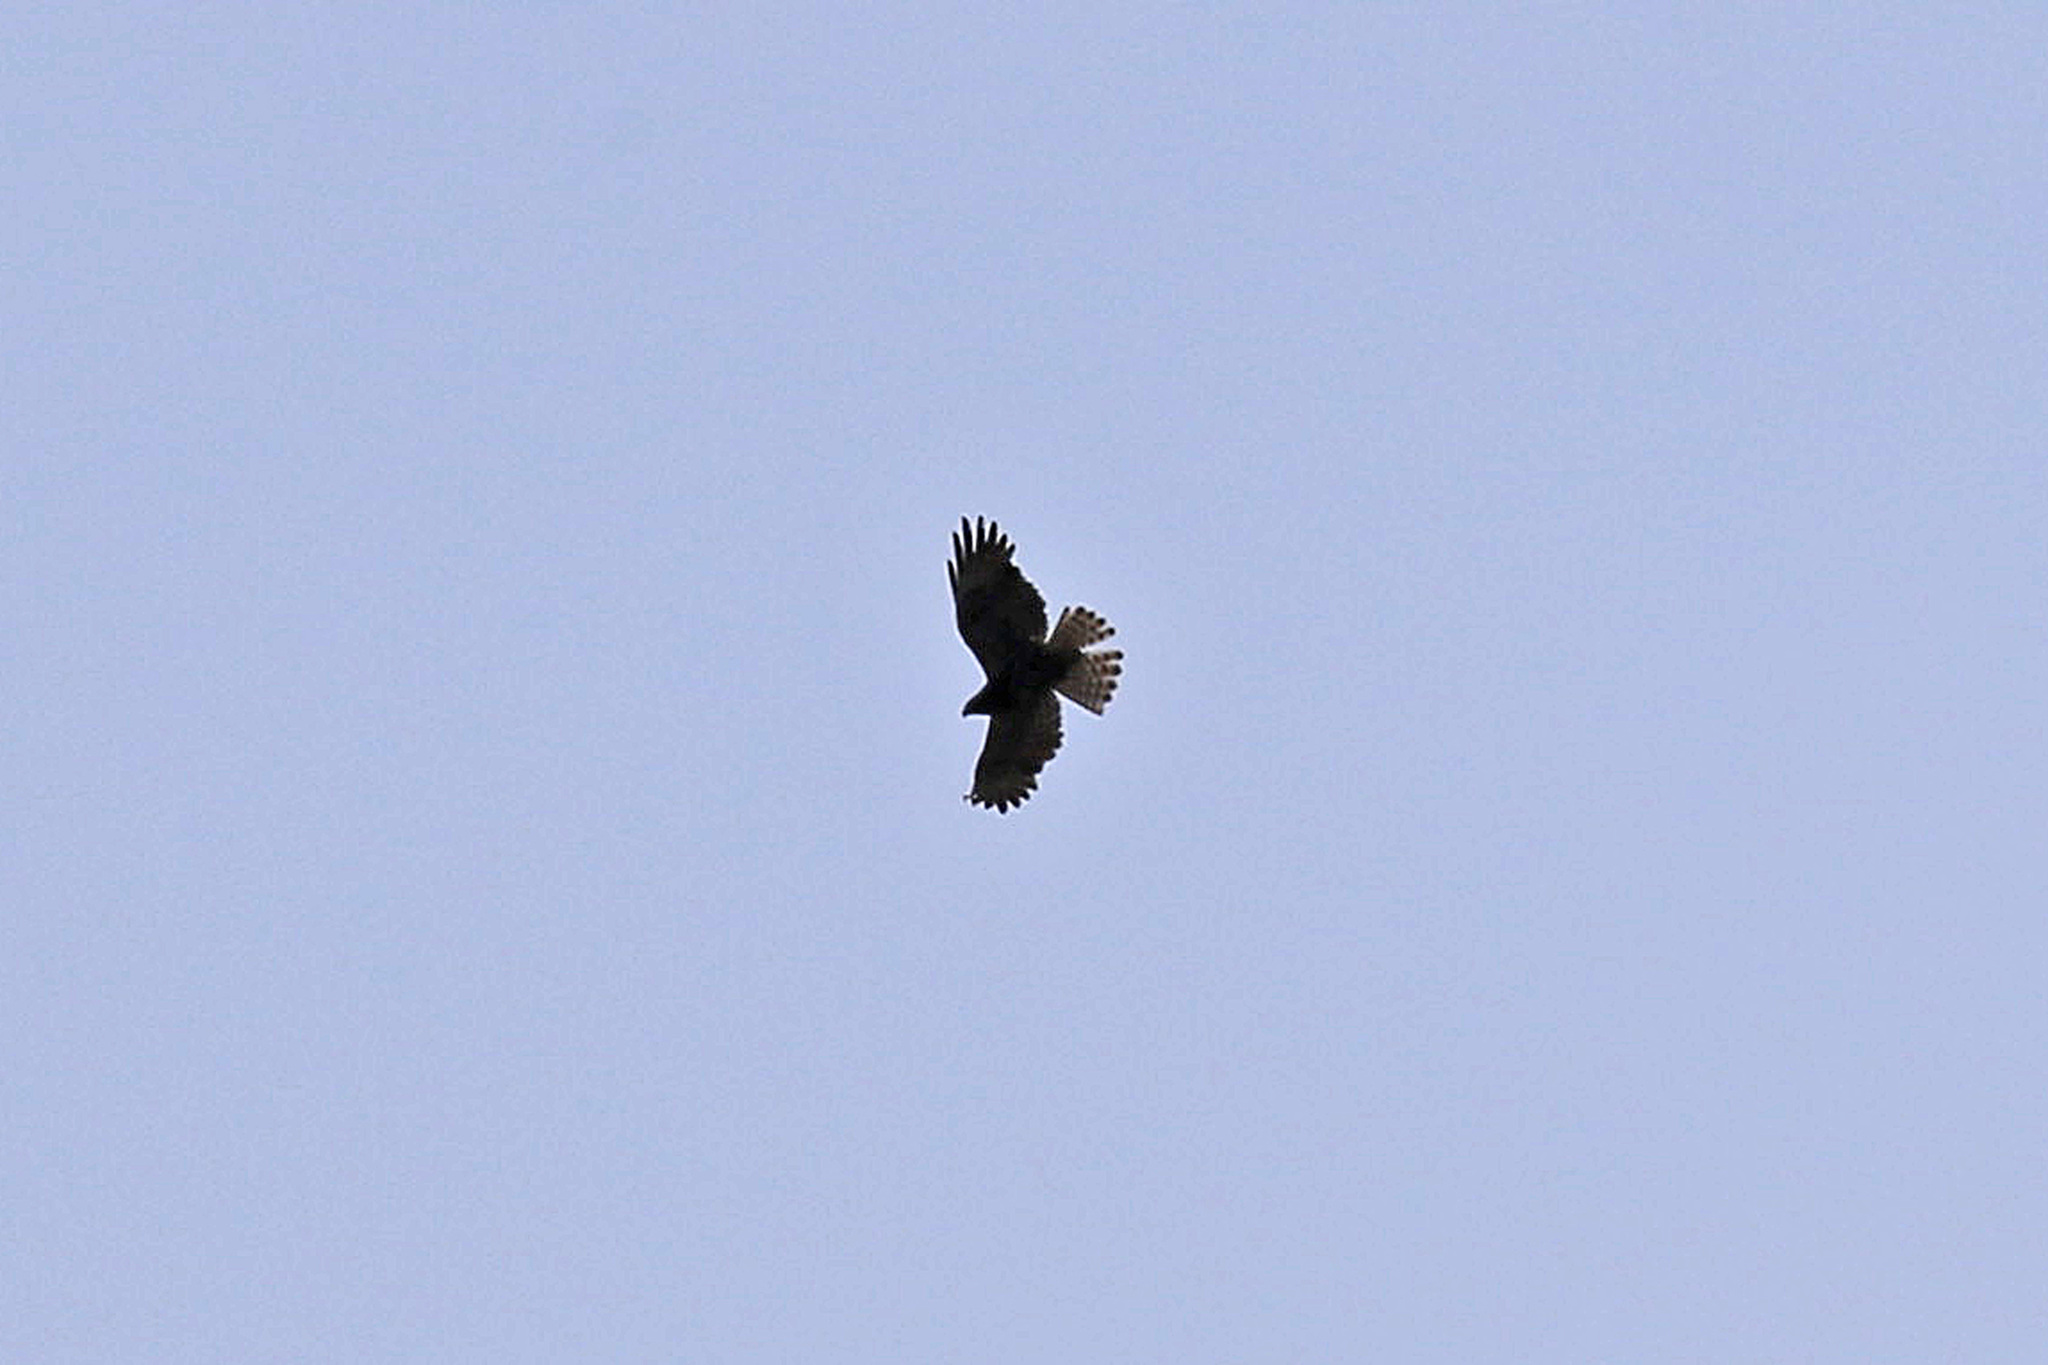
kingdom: Animalia
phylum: Chordata
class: Aves
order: Accipitriformes
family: Accipitridae
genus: Buteo
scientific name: Buteo brachyurus
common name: Short-tailed hawk
